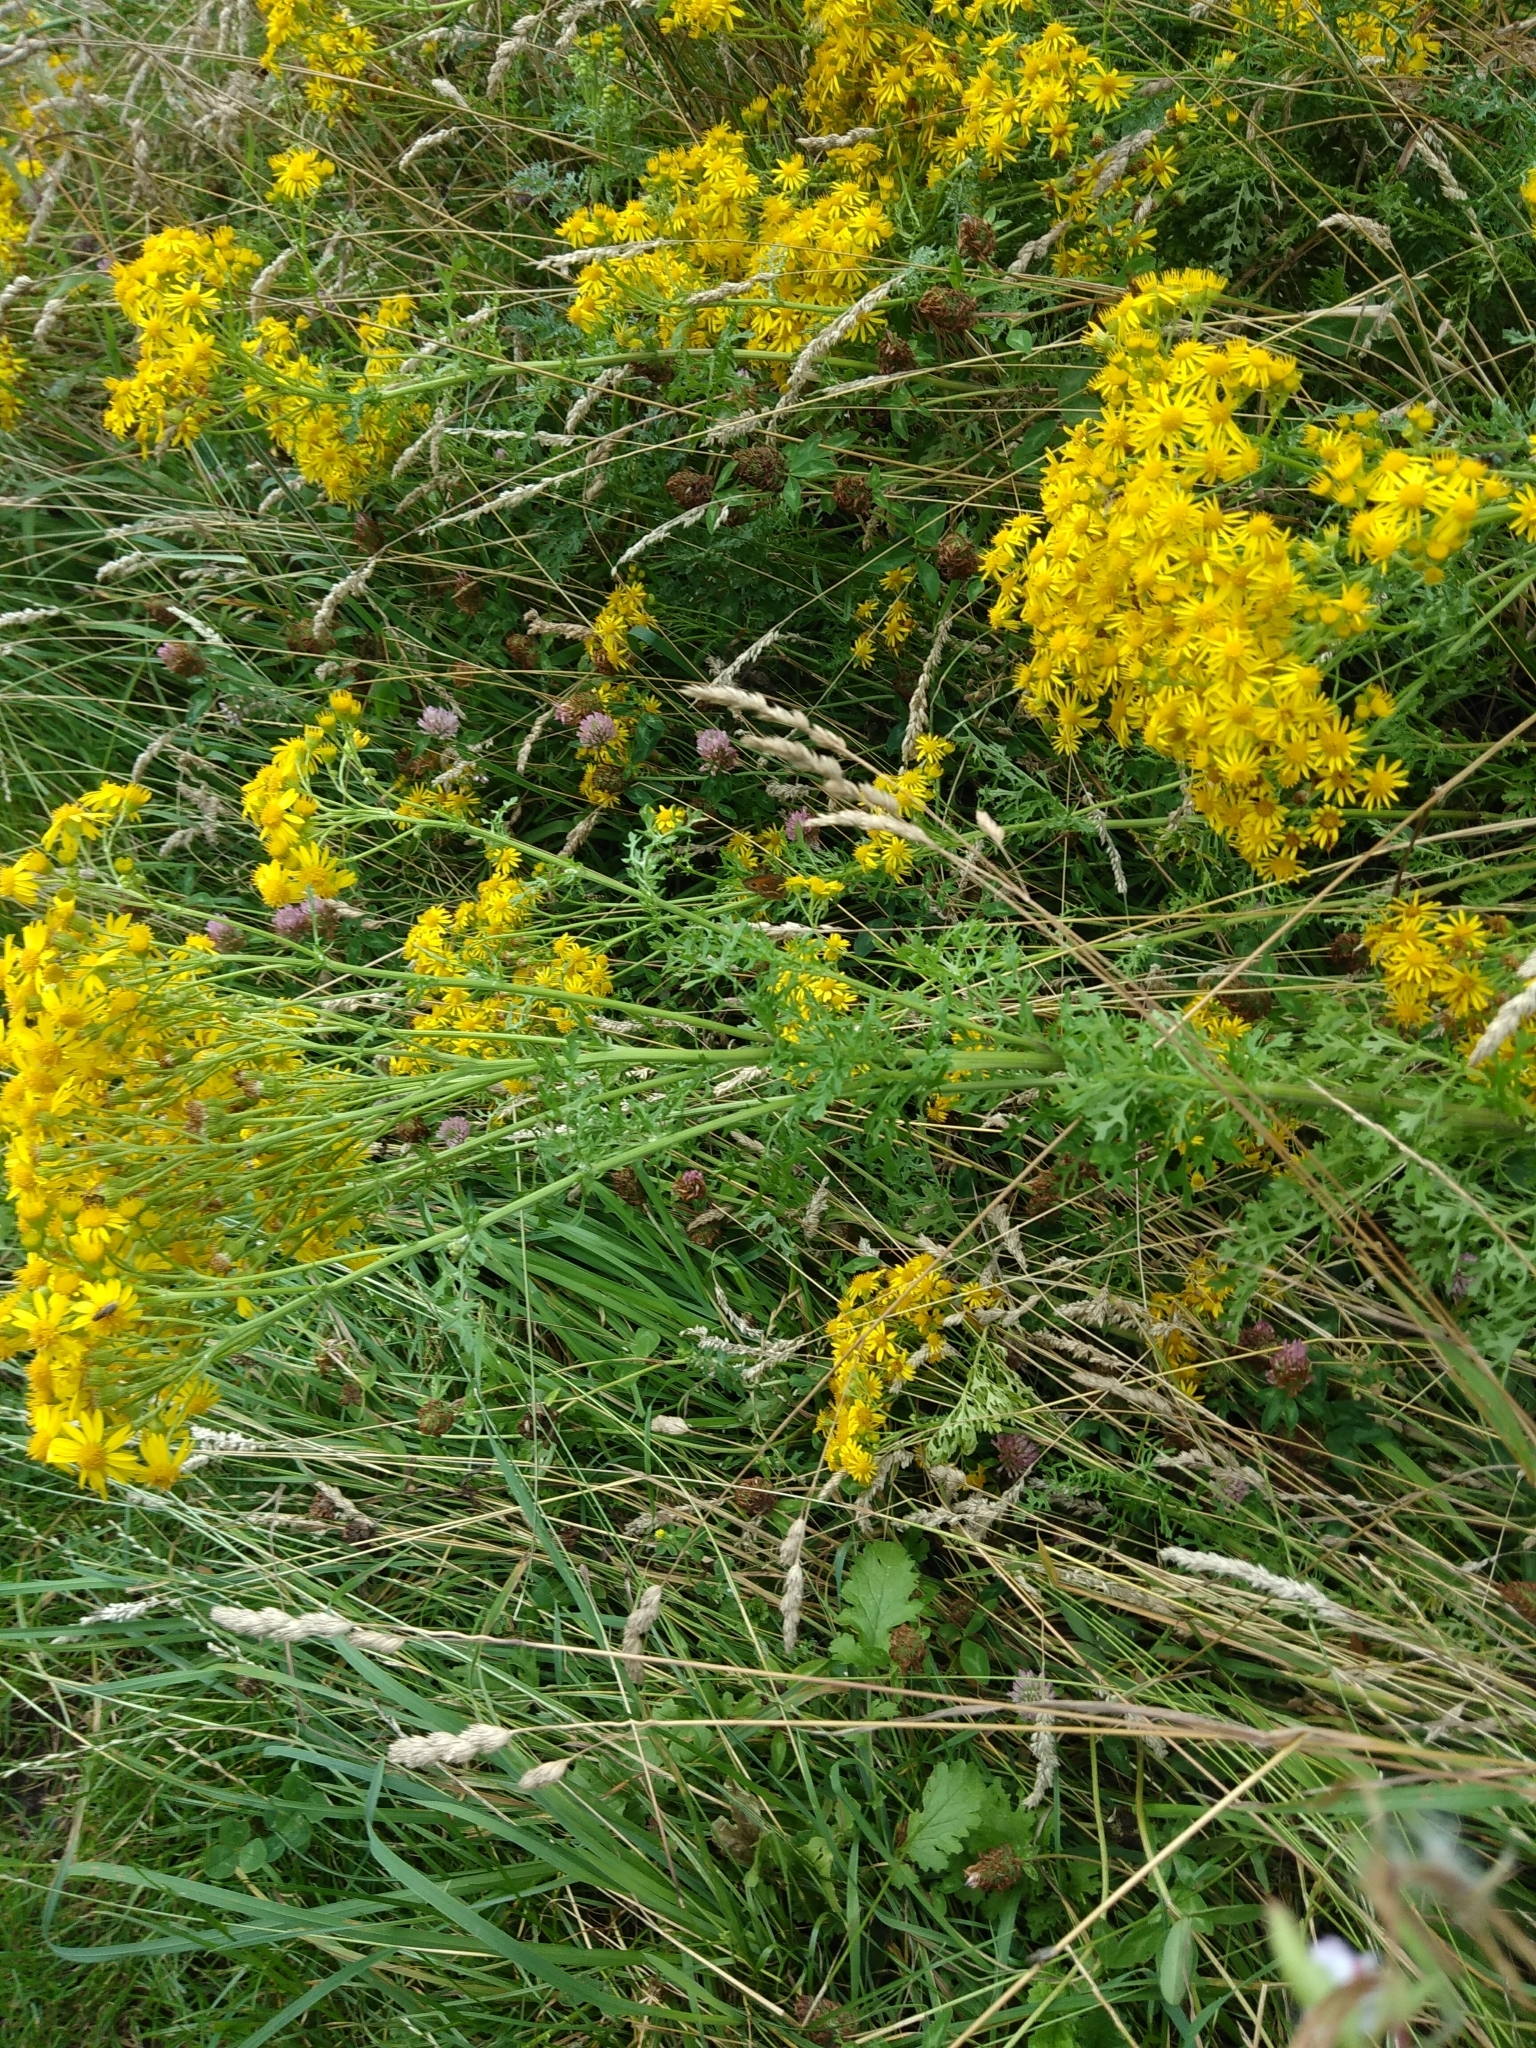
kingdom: Animalia
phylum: Arthropoda
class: Insecta
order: Lepidoptera
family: Nymphalidae
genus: Pyronia
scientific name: Pyronia tithonus
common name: Gatekeeper
